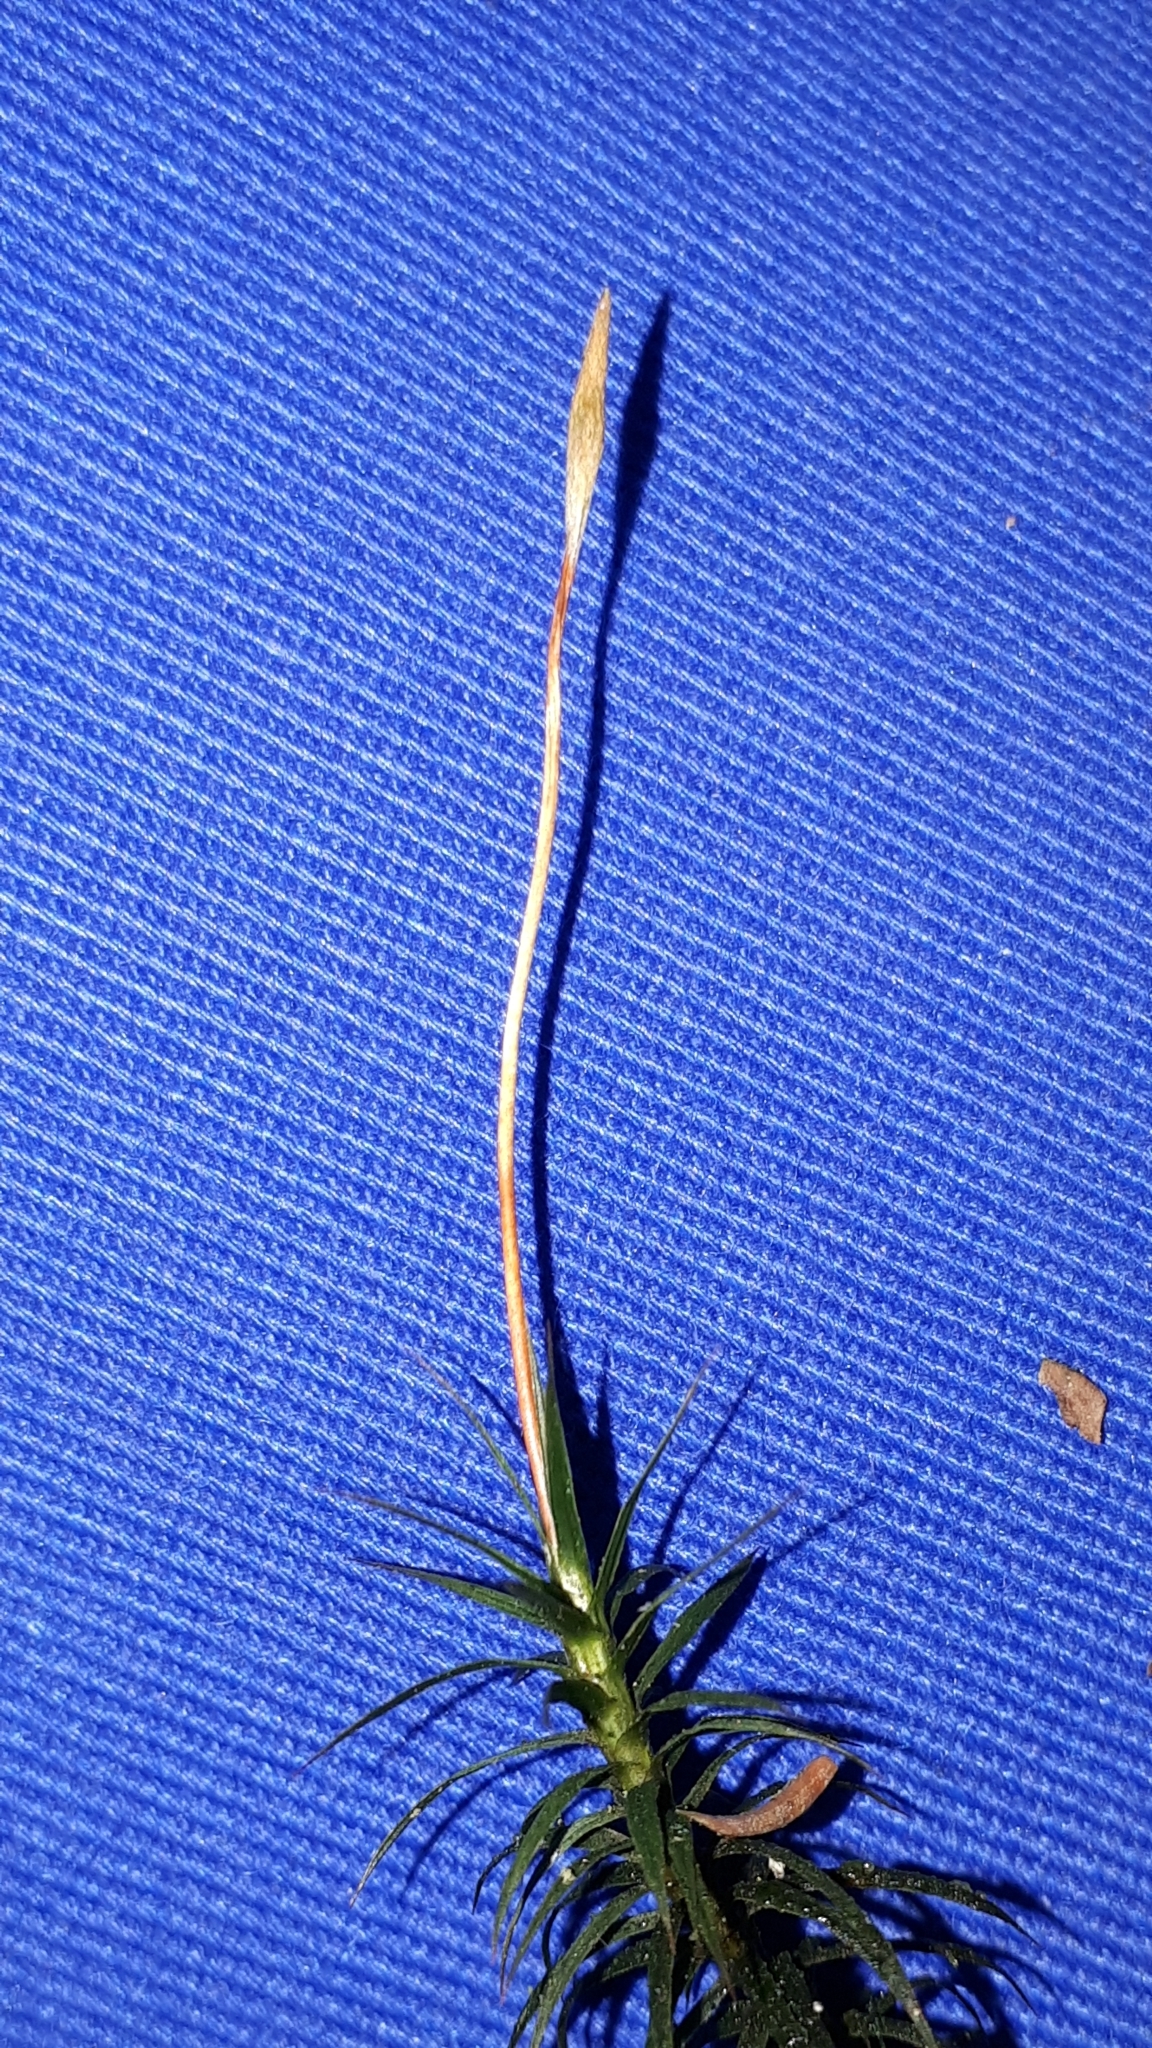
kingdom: Plantae
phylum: Bryophyta
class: Polytrichopsida
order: Polytrichales
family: Polytrichaceae
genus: Polytrichum
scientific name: Polytrichum formosum
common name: Bank haircap moss
